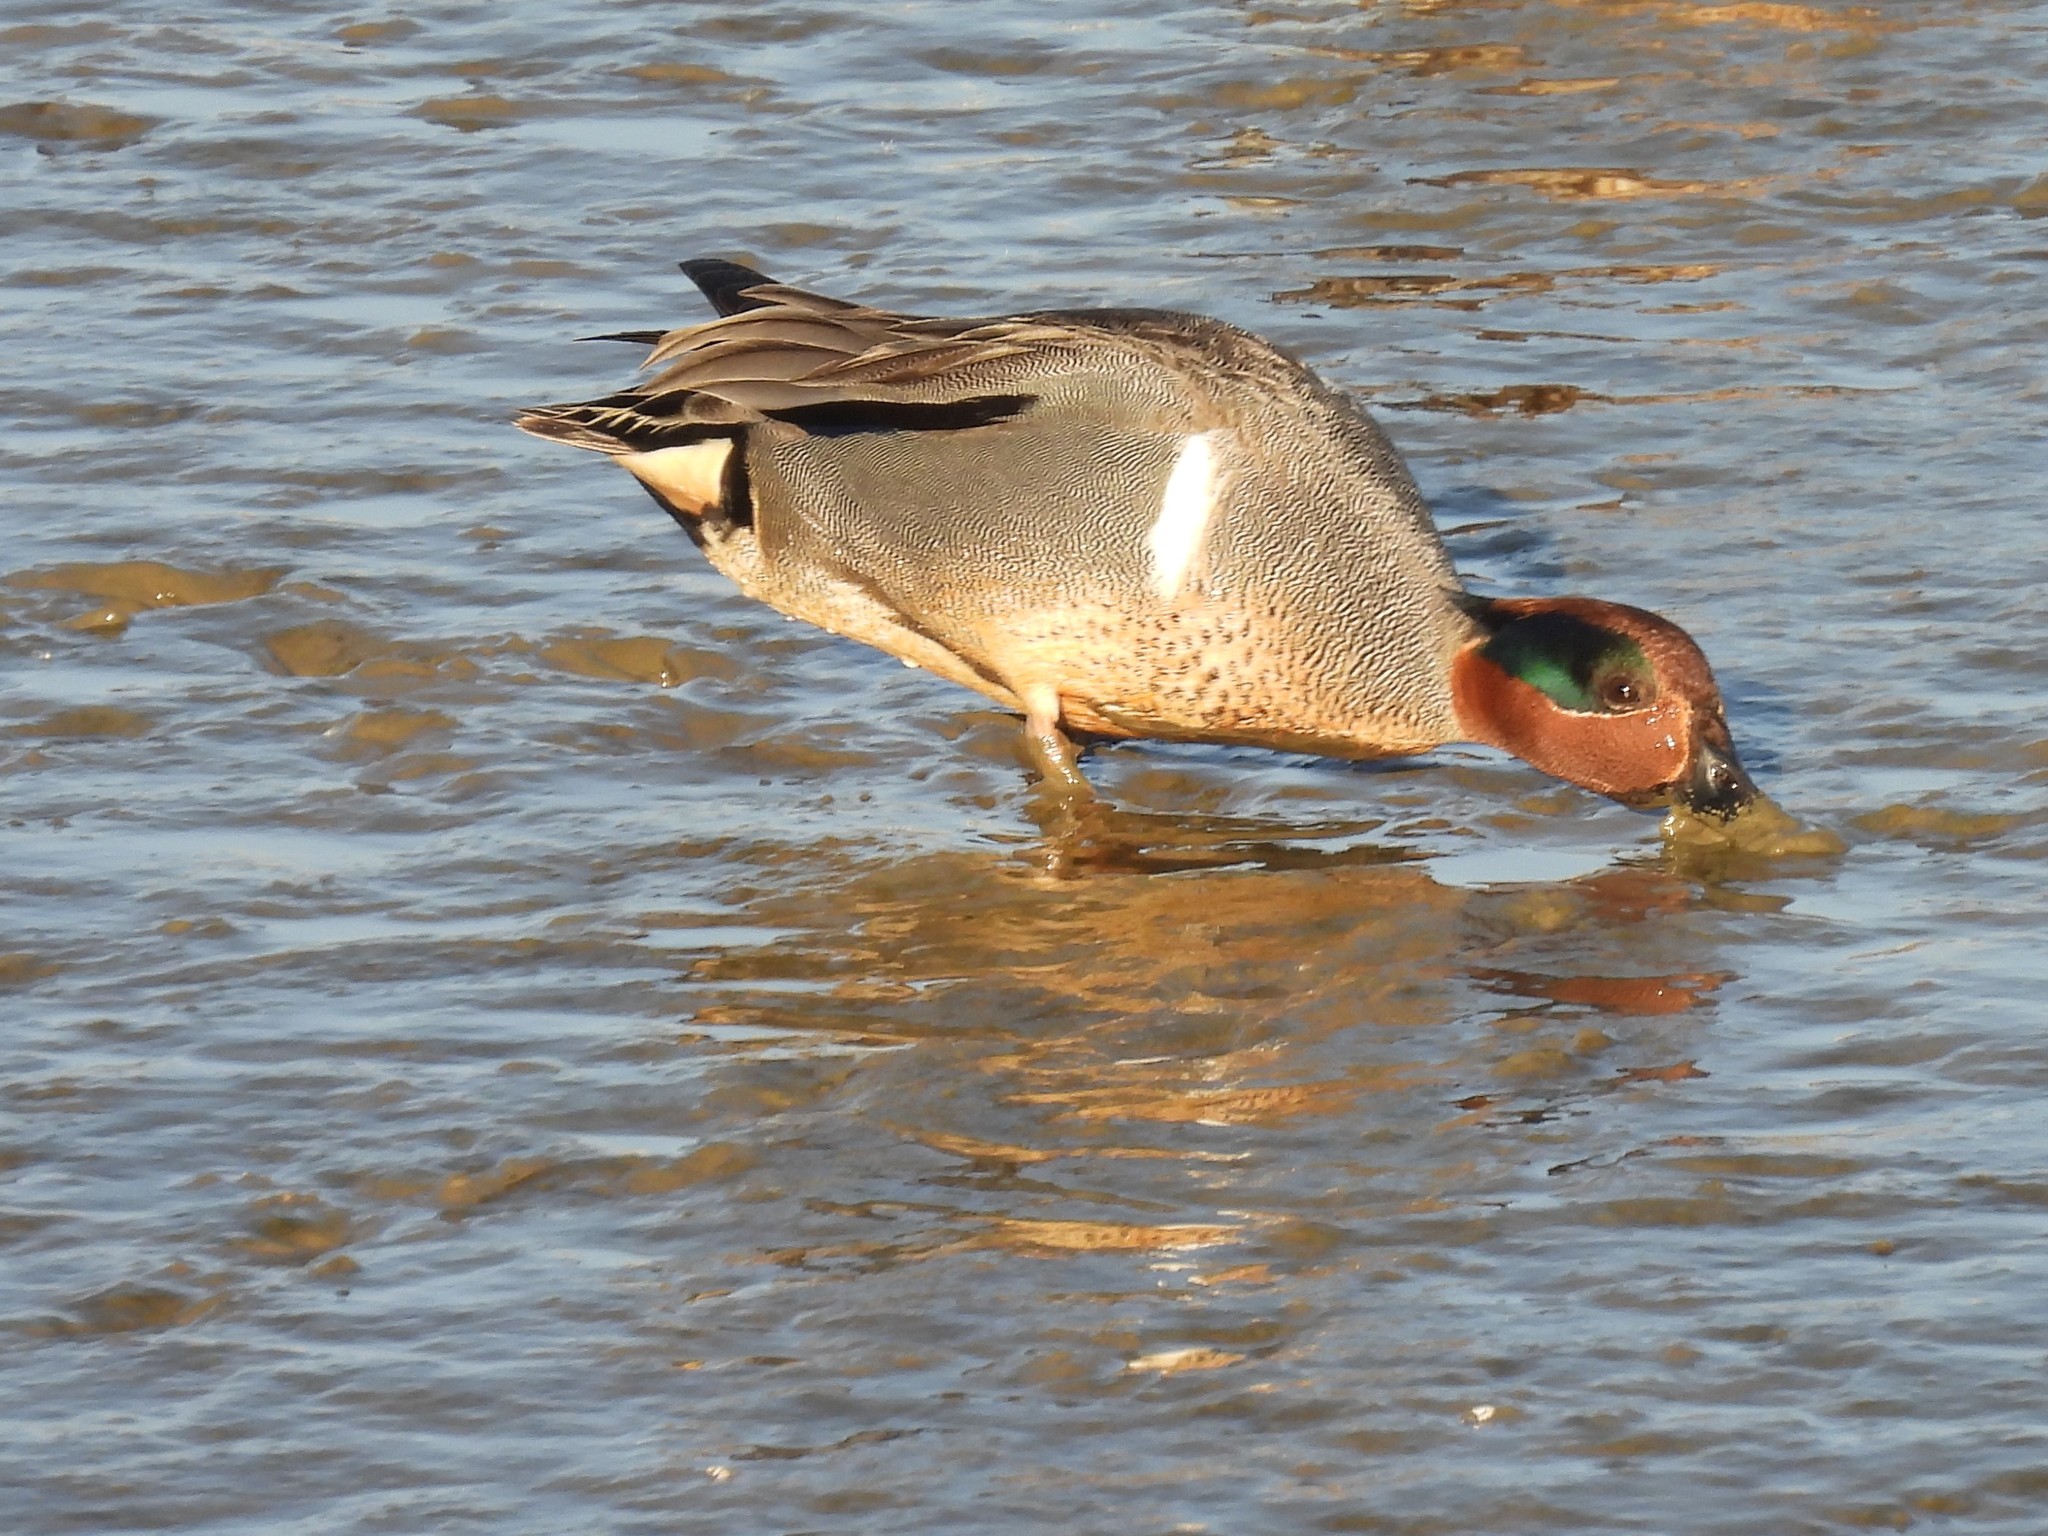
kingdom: Animalia
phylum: Chordata
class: Aves
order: Anseriformes
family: Anatidae
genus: Anas
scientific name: Anas crecca
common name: Eurasian teal
